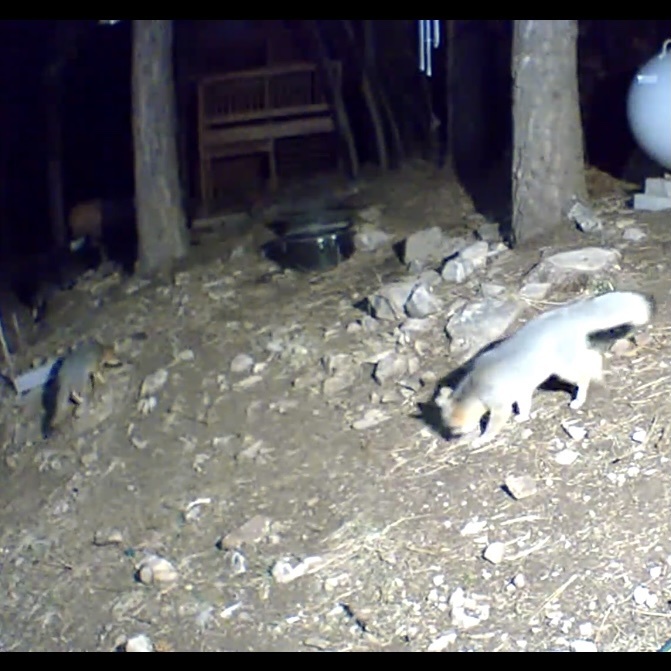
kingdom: Animalia
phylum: Chordata
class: Mammalia
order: Carnivora
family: Canidae
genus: Urocyon
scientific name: Urocyon cinereoargenteus
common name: Gray fox
